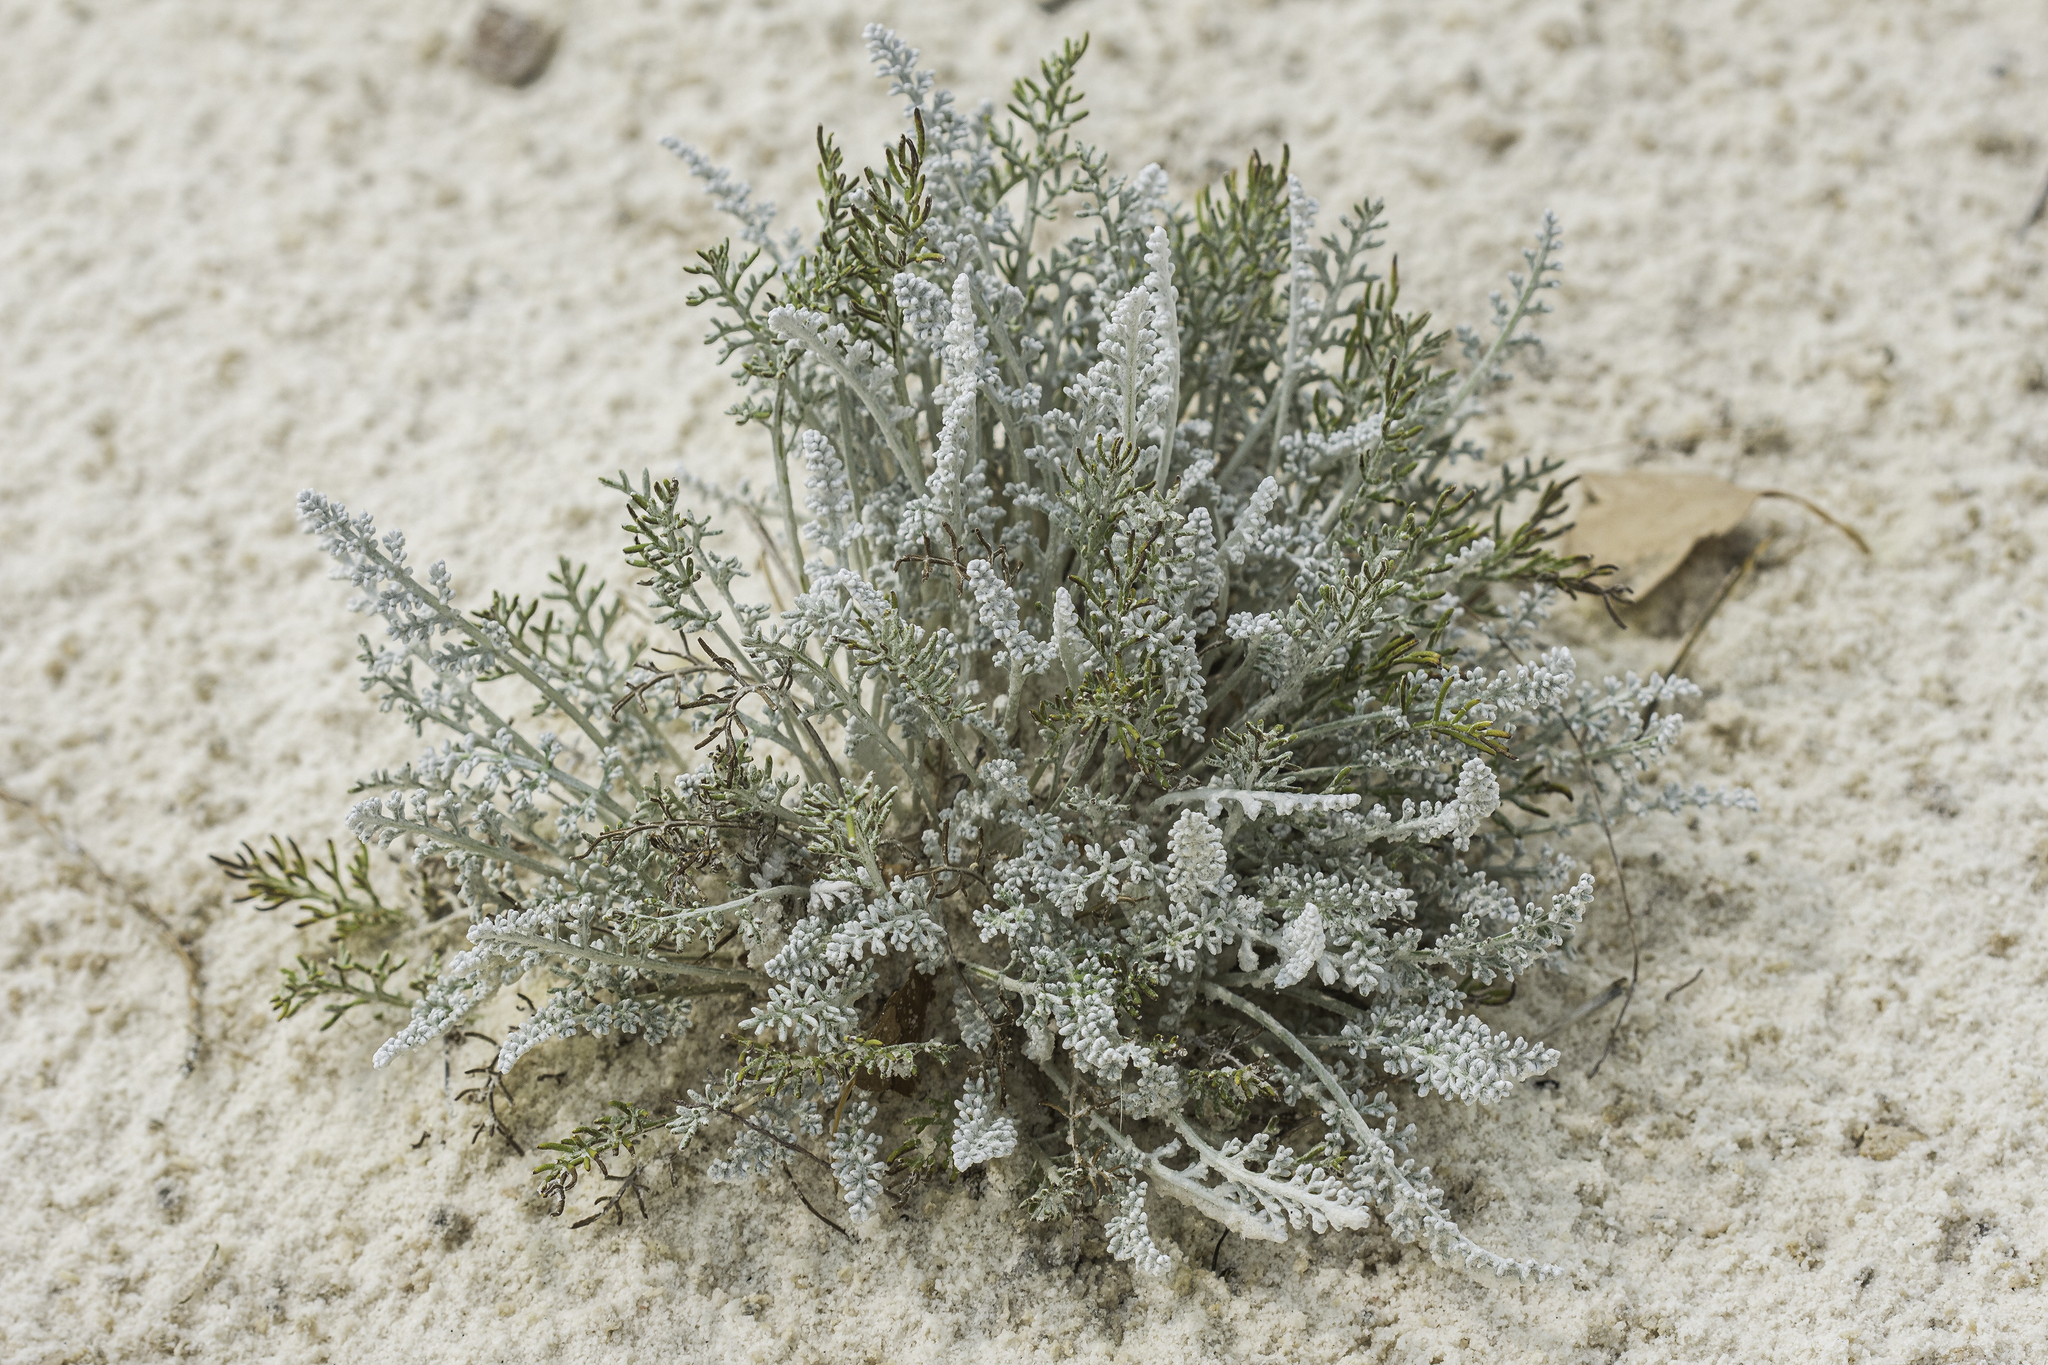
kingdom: Plantae
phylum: Tracheophyta
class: Magnoliopsida
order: Asterales
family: Asteraceae
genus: Hymenopappus
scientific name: Hymenopappus filifolius
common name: Columbia cutleaf
